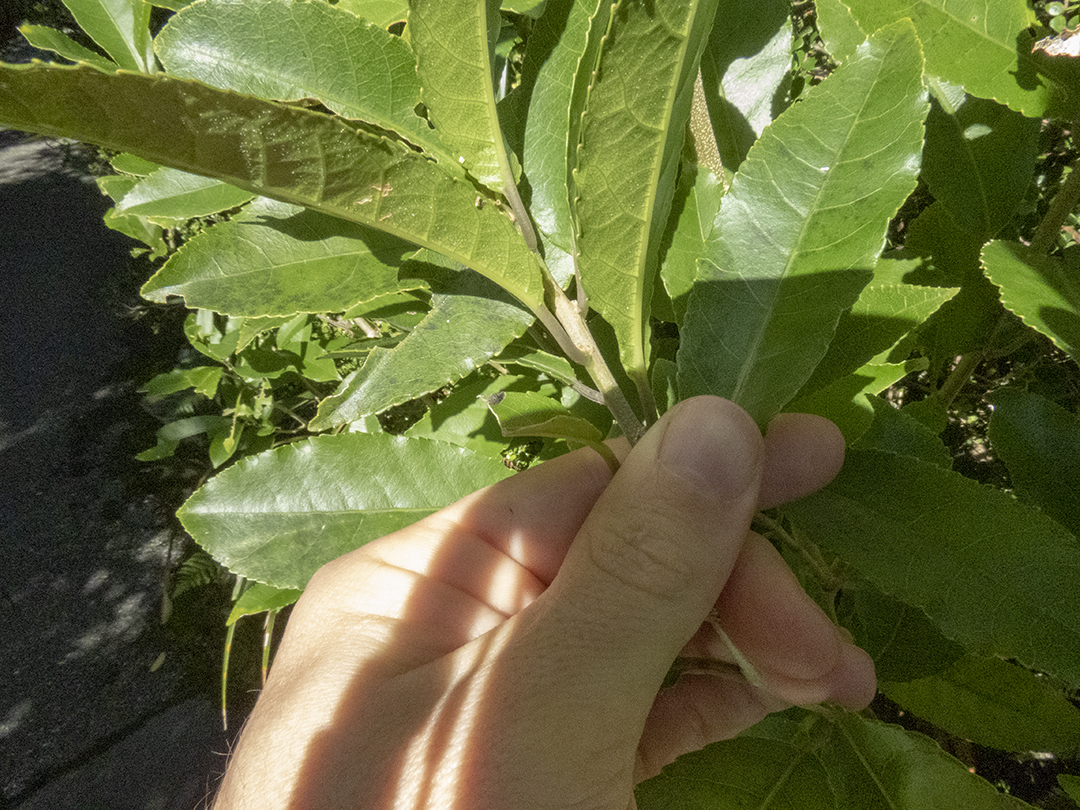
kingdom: Plantae
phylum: Tracheophyta
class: Magnoliopsida
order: Malpighiales
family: Violaceae
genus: Melicytus
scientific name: Melicytus ramiflorus
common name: Mahoe
